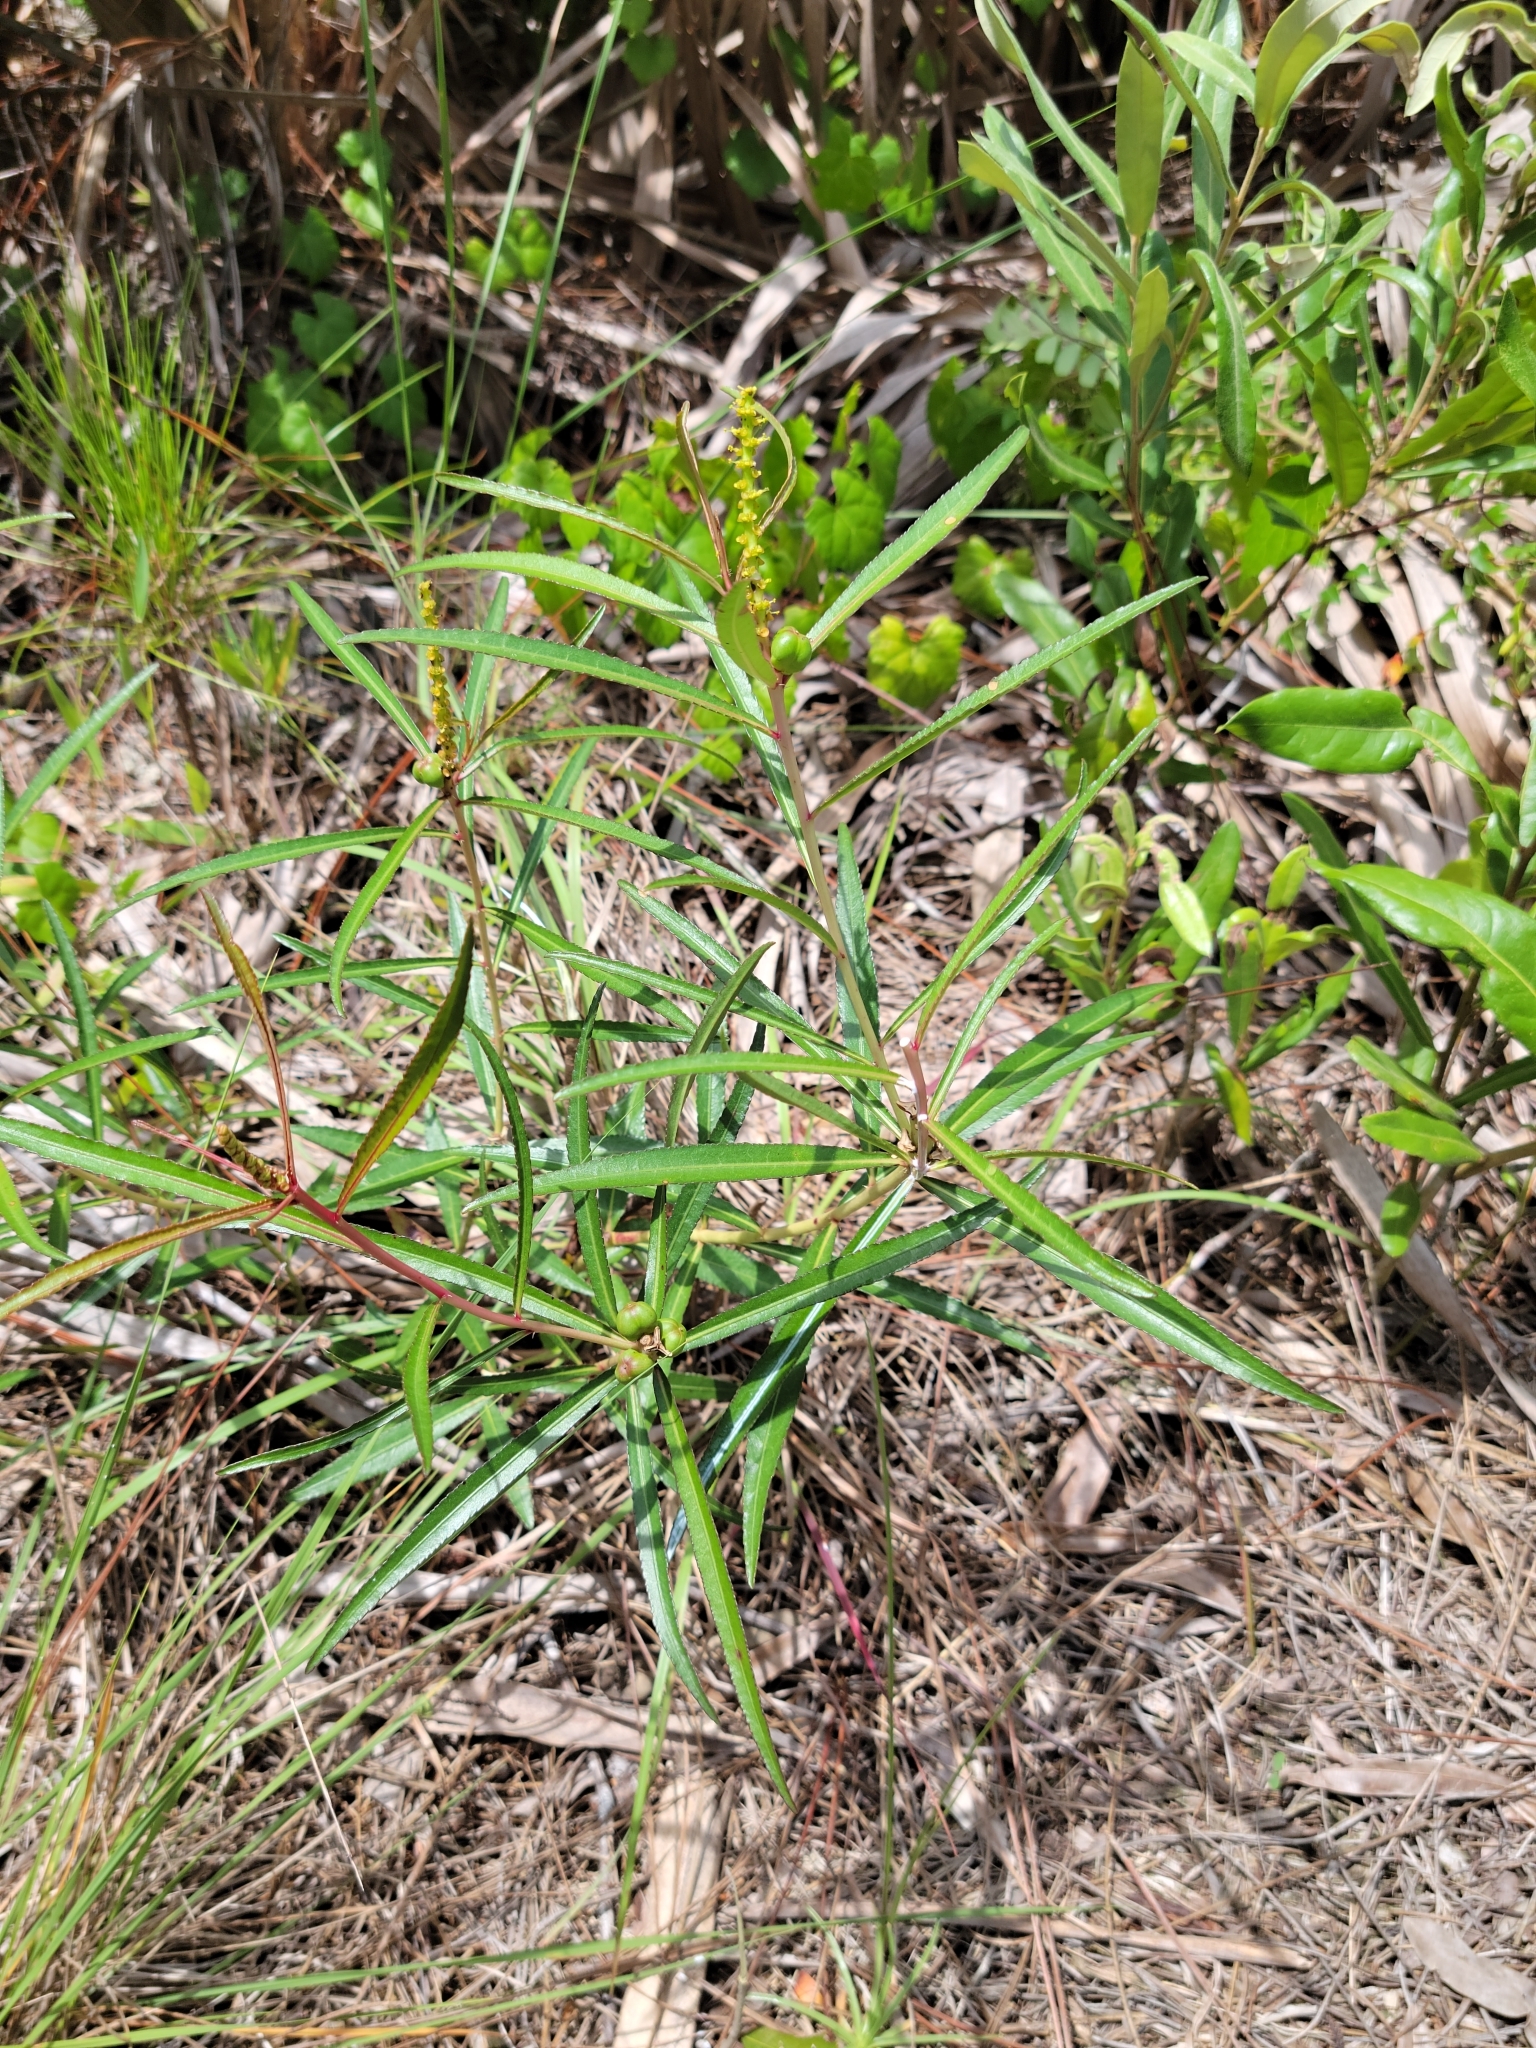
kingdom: Plantae
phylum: Tracheophyta
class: Magnoliopsida
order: Malpighiales
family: Euphorbiaceae
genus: Stillingia
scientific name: Stillingia sylvatica
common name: Queen's-delight
